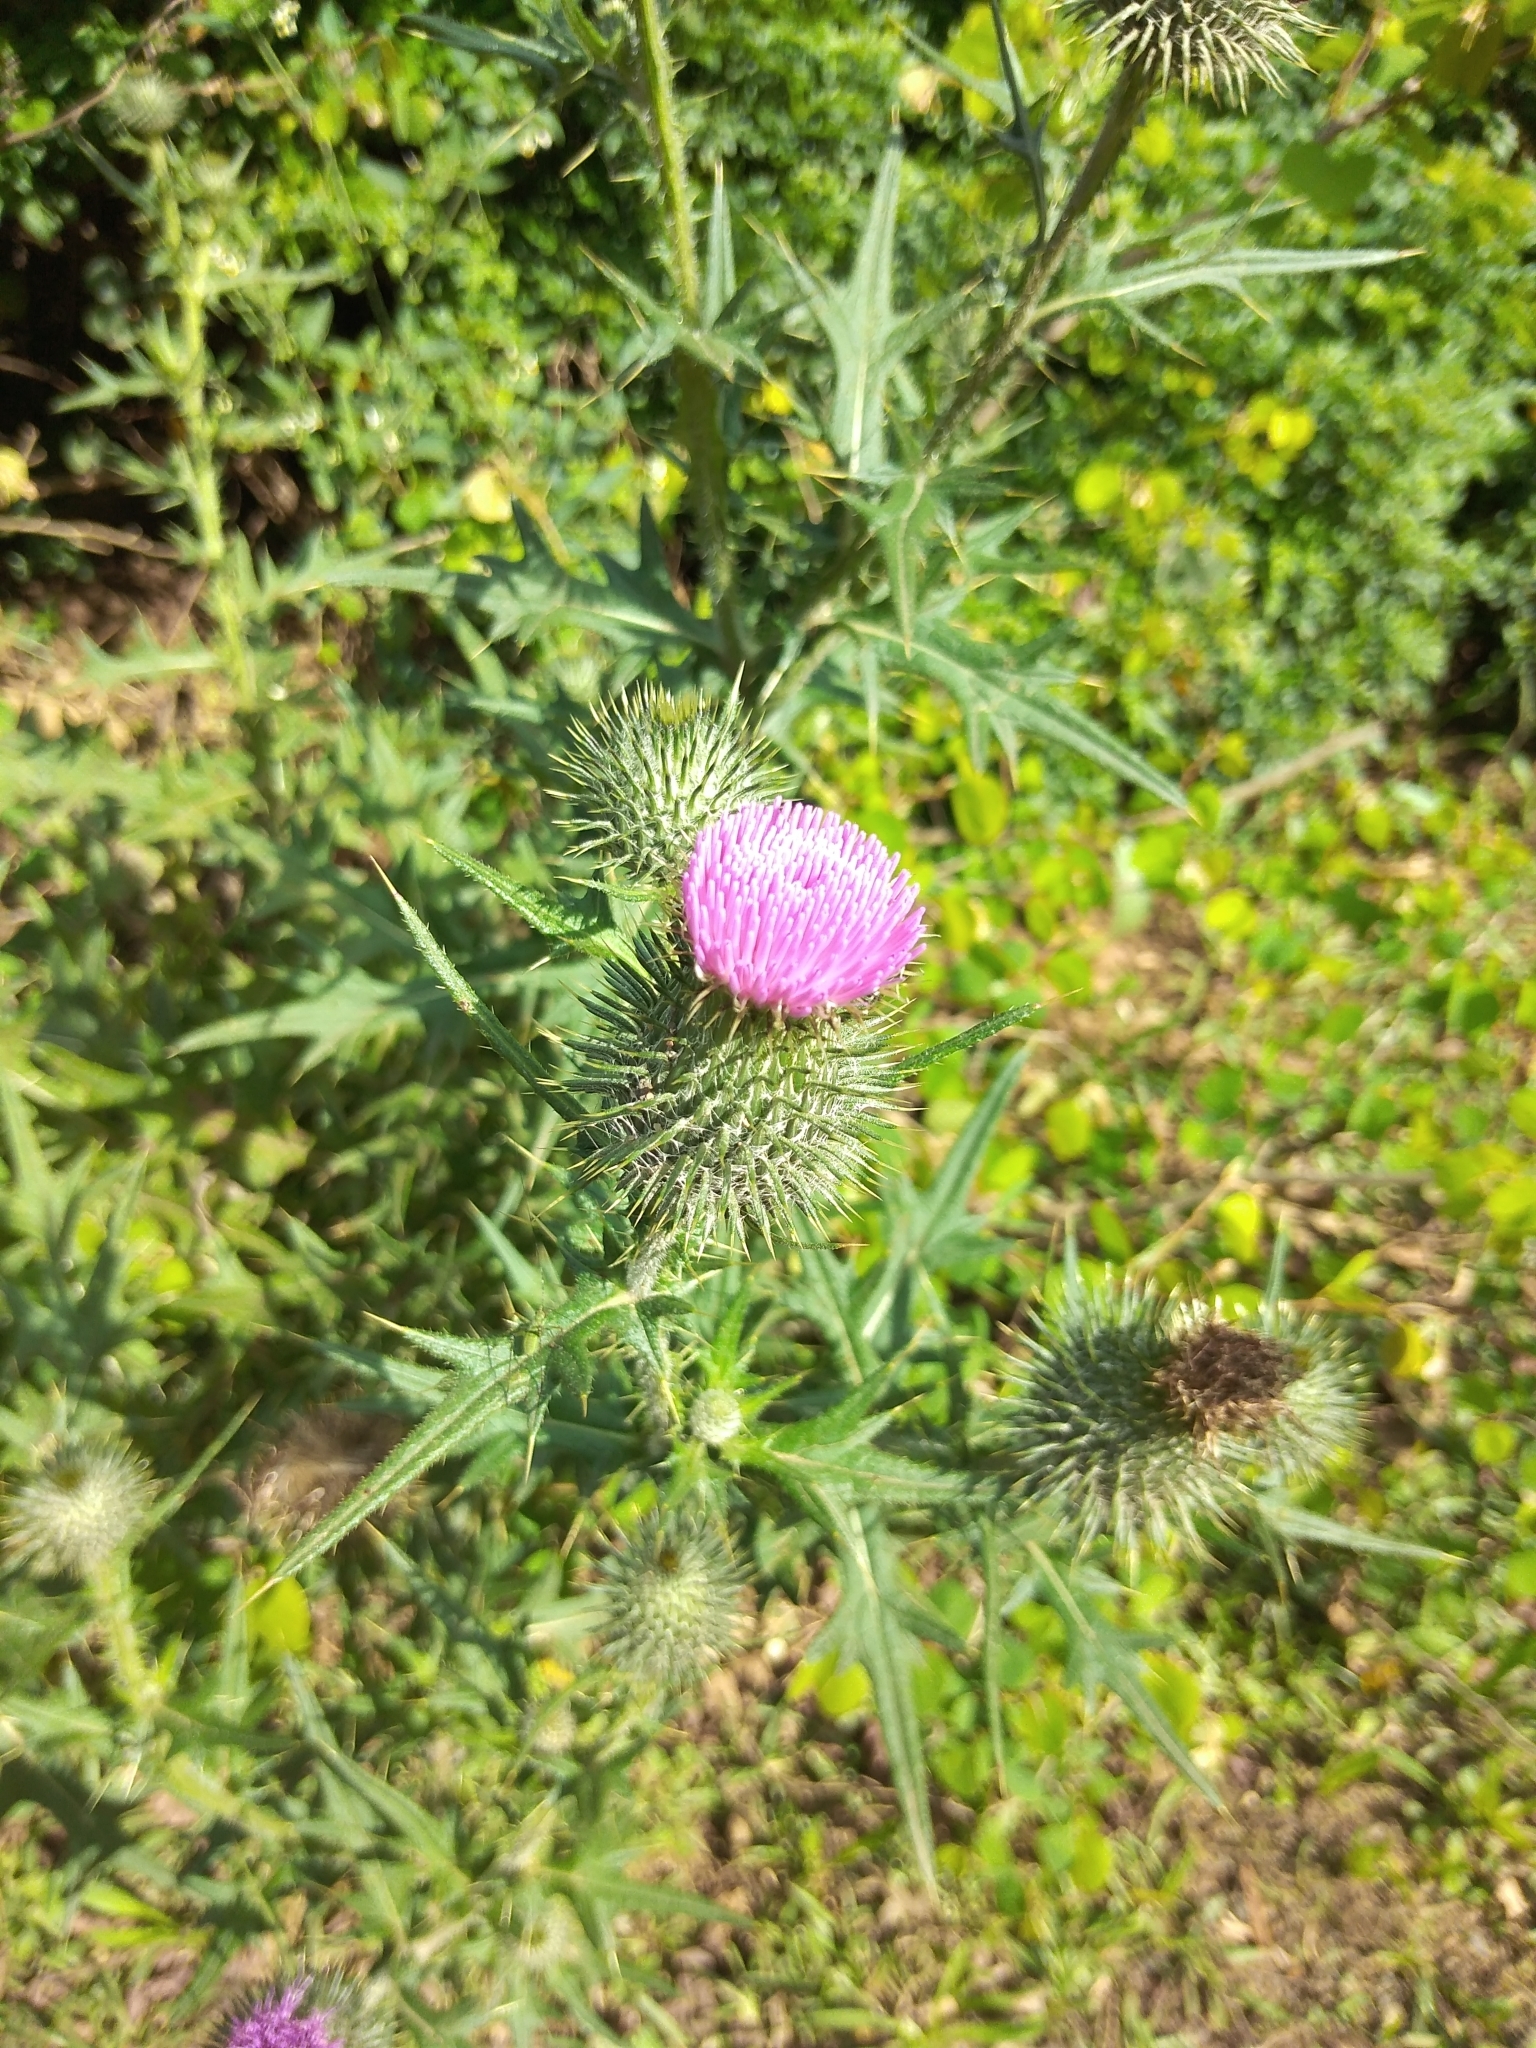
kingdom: Plantae
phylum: Tracheophyta
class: Magnoliopsida
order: Asterales
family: Asteraceae
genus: Cirsium
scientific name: Cirsium vulgare
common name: Bull thistle
